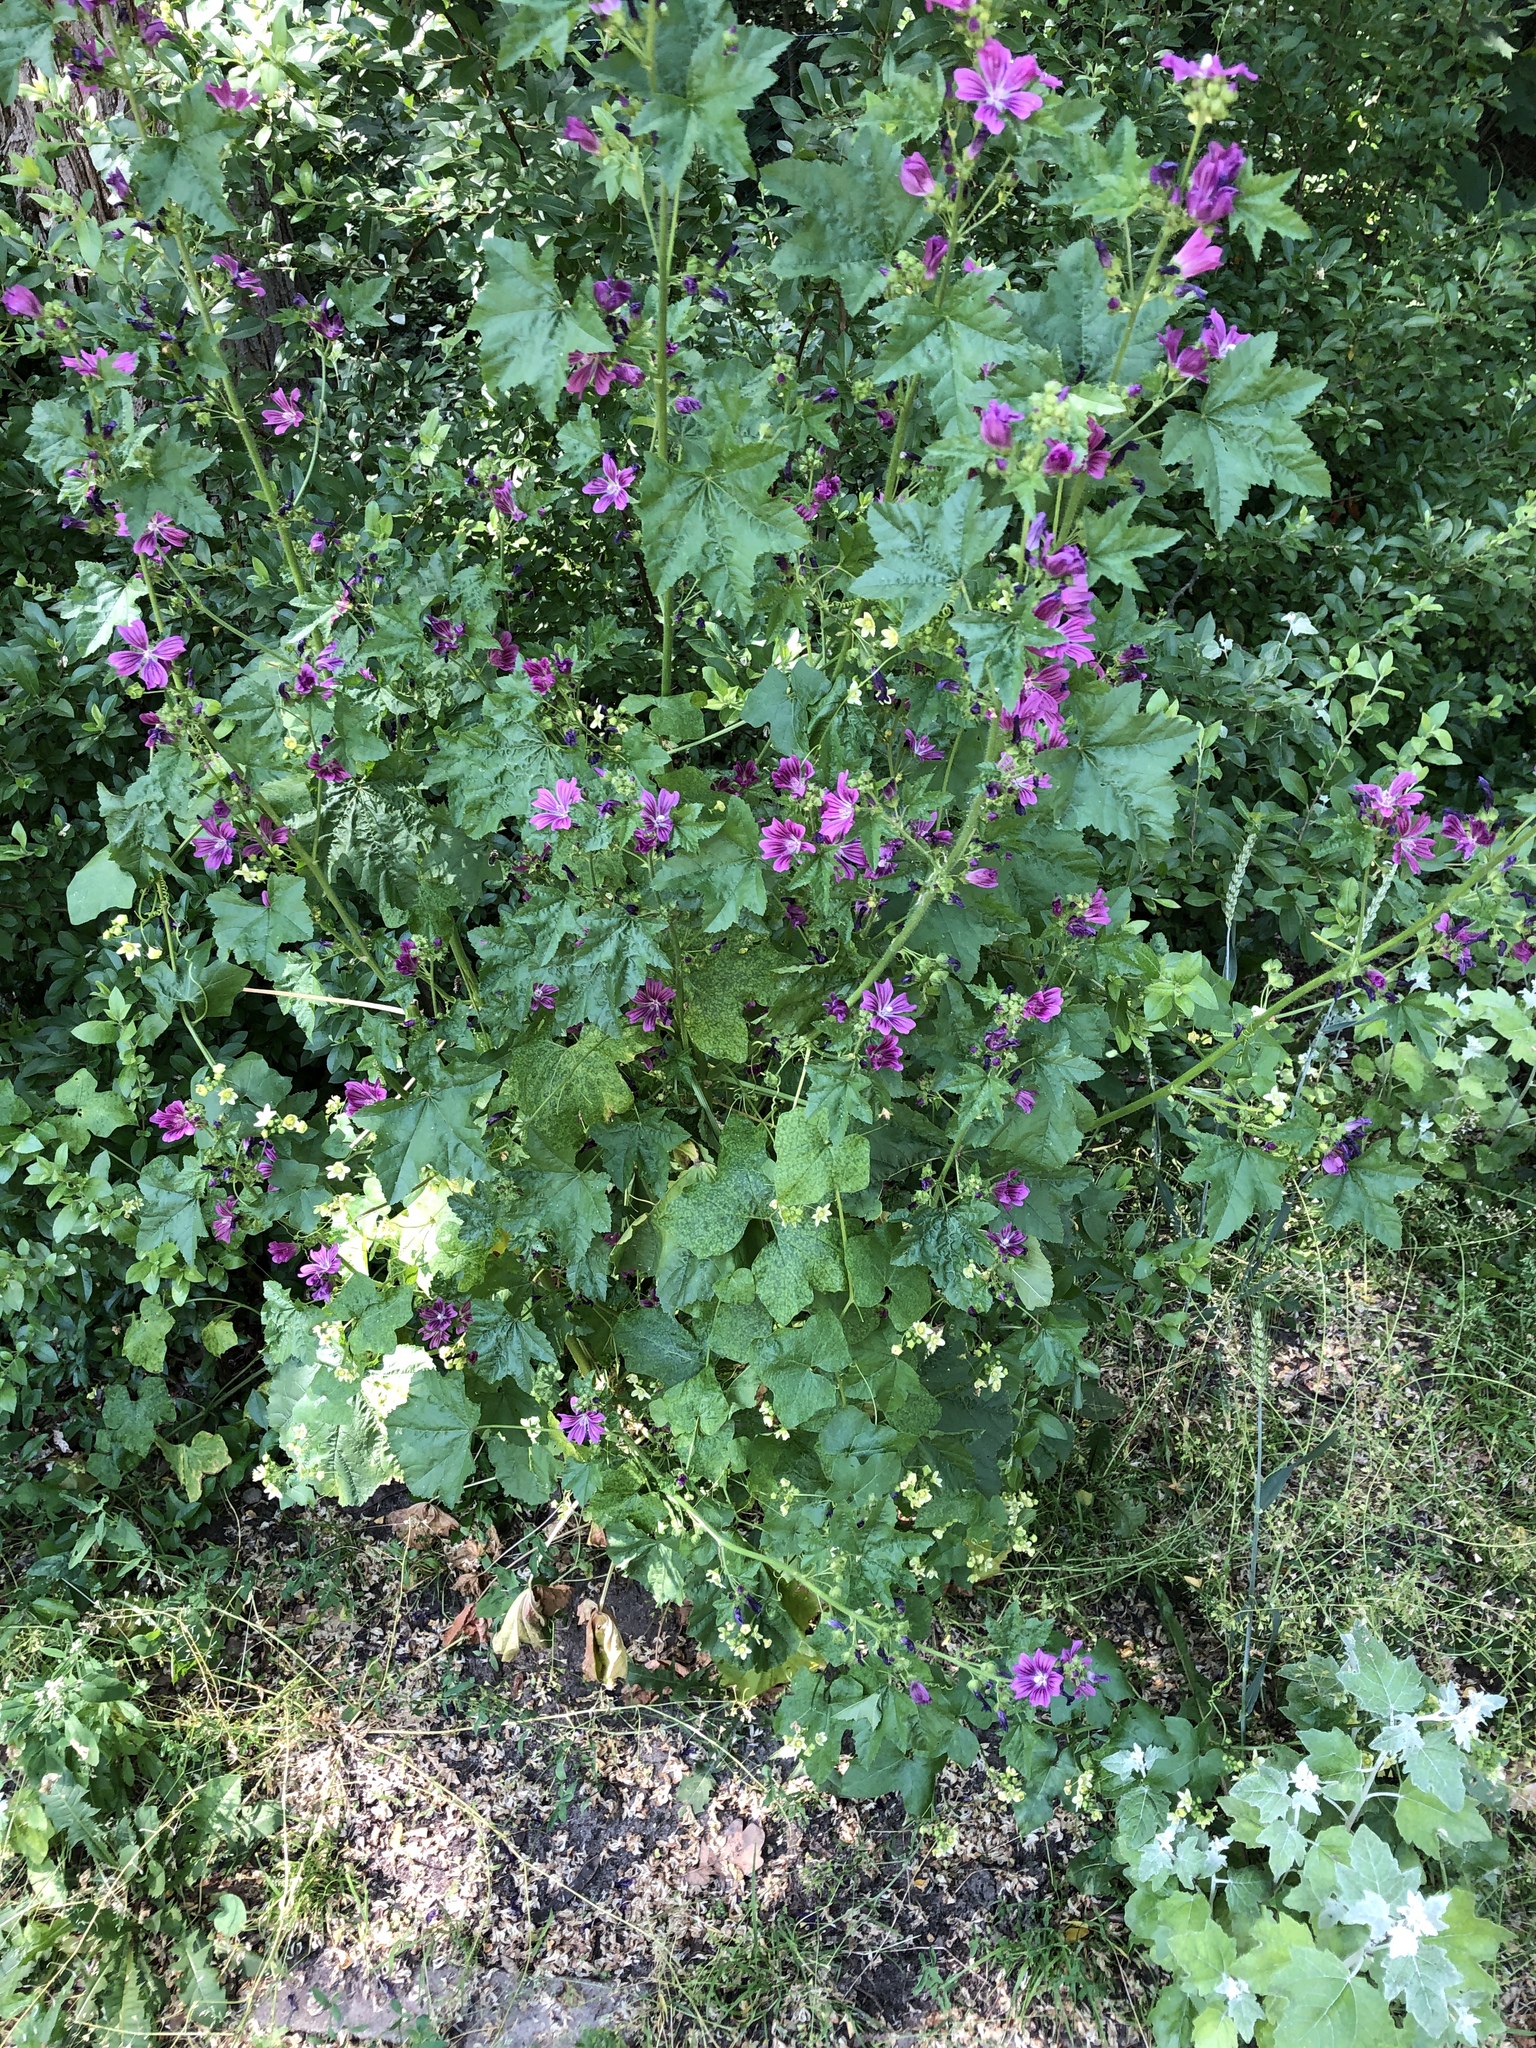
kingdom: Plantae
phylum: Tracheophyta
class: Magnoliopsida
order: Malvales
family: Malvaceae
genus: Malva
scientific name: Malva sylvestris
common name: Common mallow
